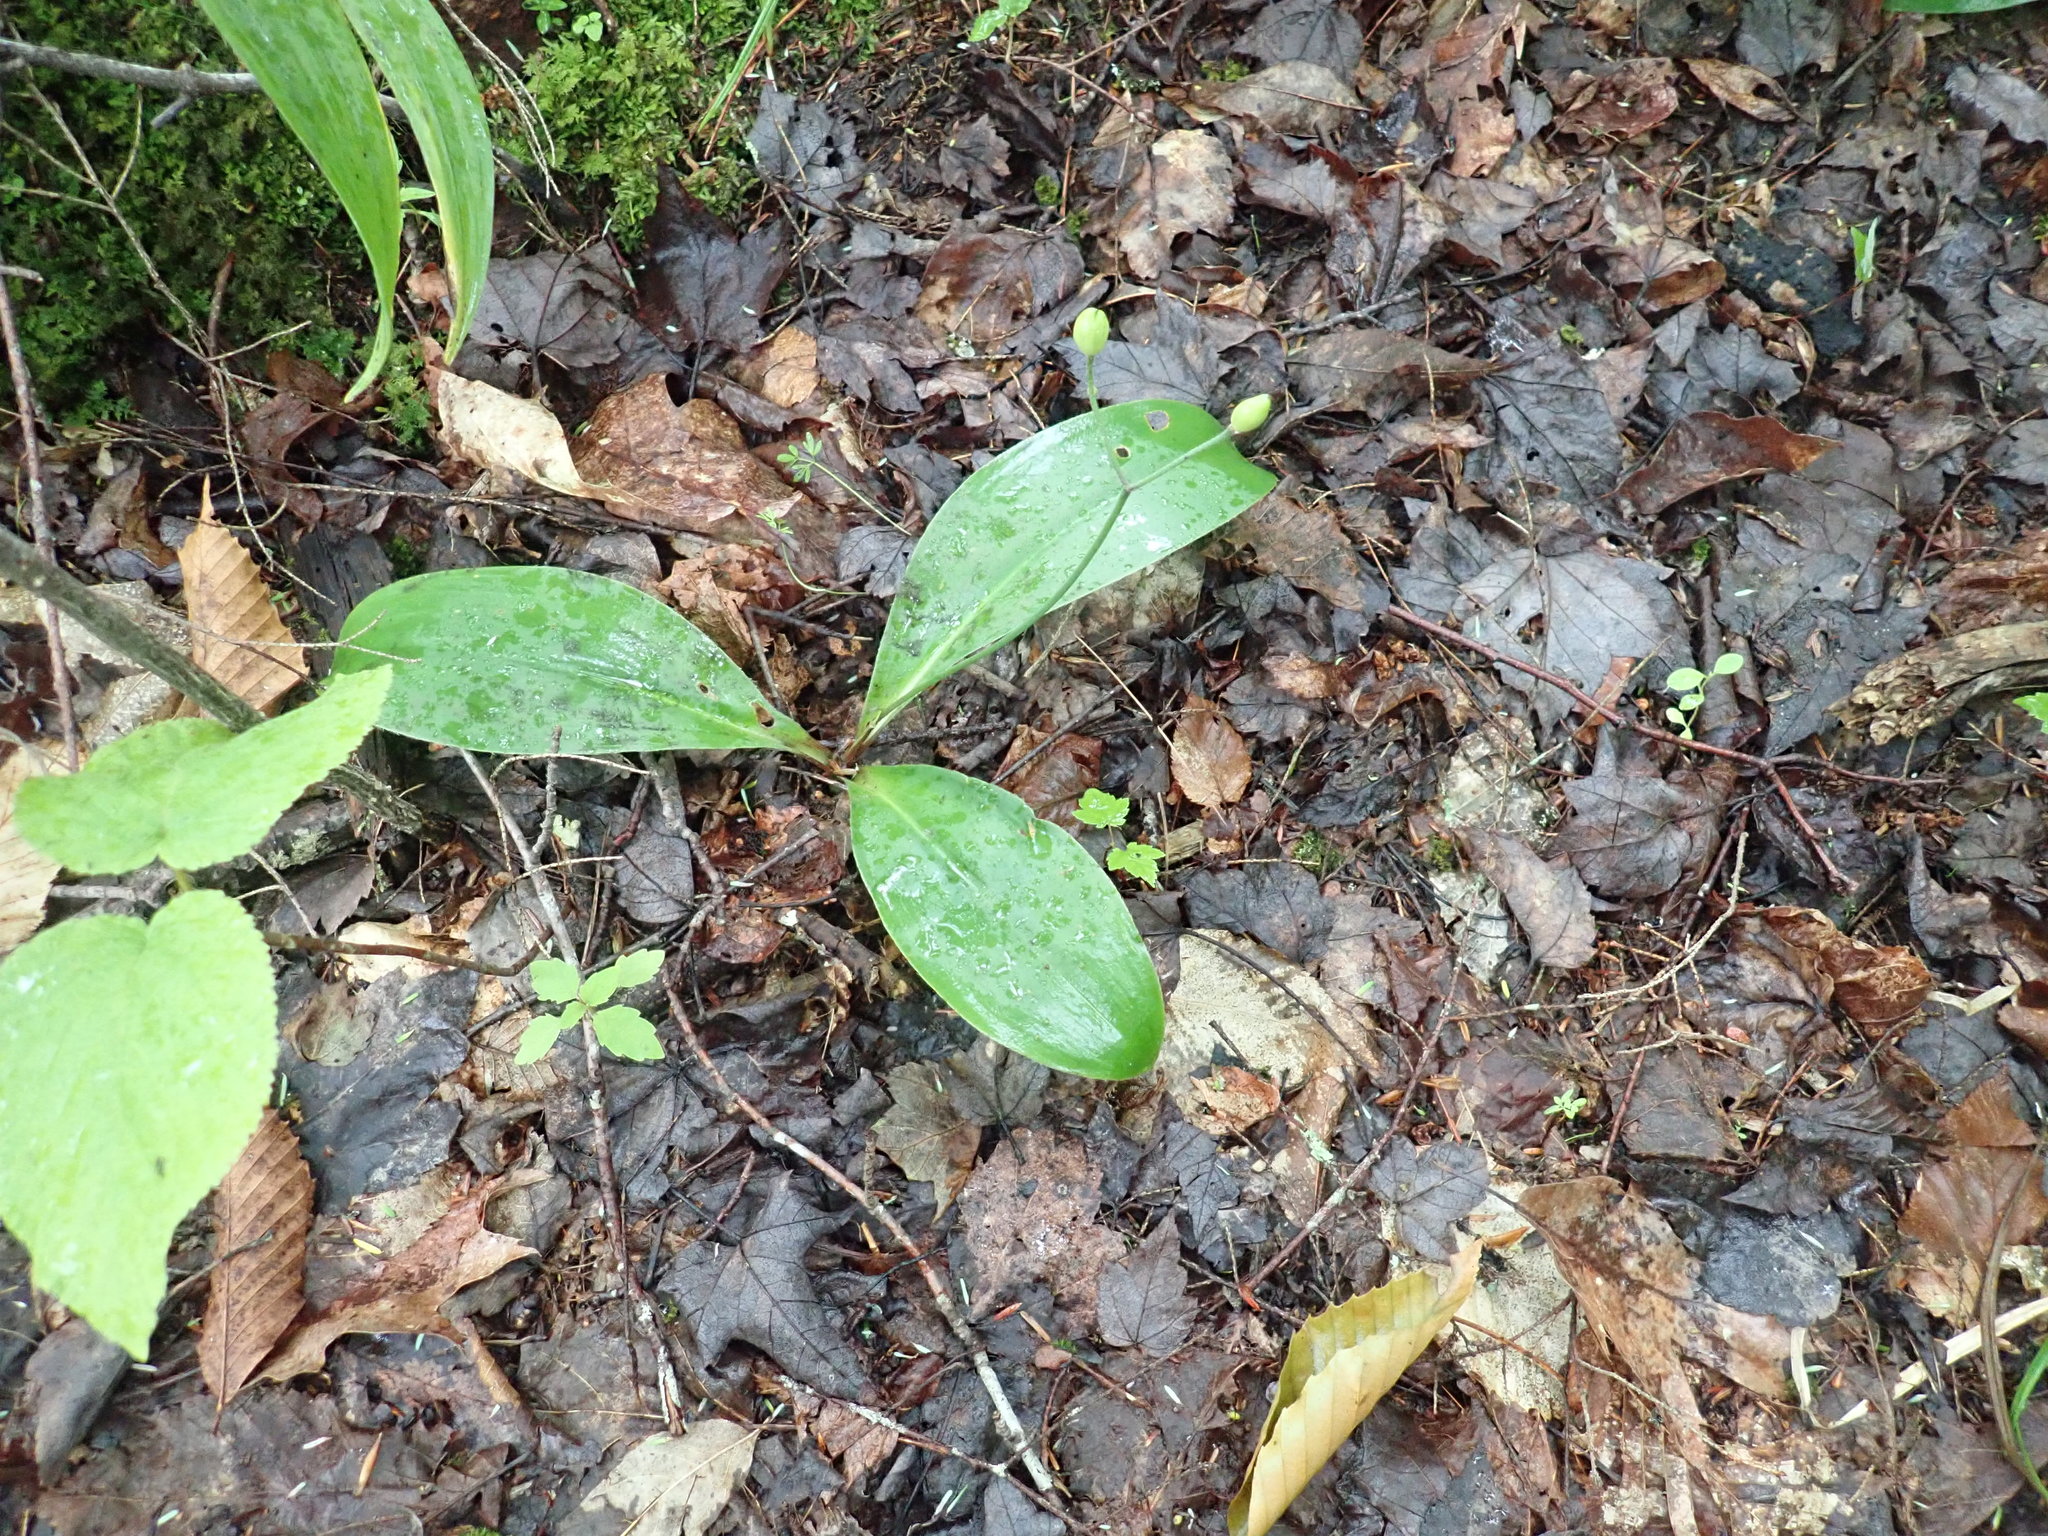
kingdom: Plantae
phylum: Tracheophyta
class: Liliopsida
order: Liliales
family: Liliaceae
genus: Clintonia
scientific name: Clintonia borealis
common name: Yellow clintonia
